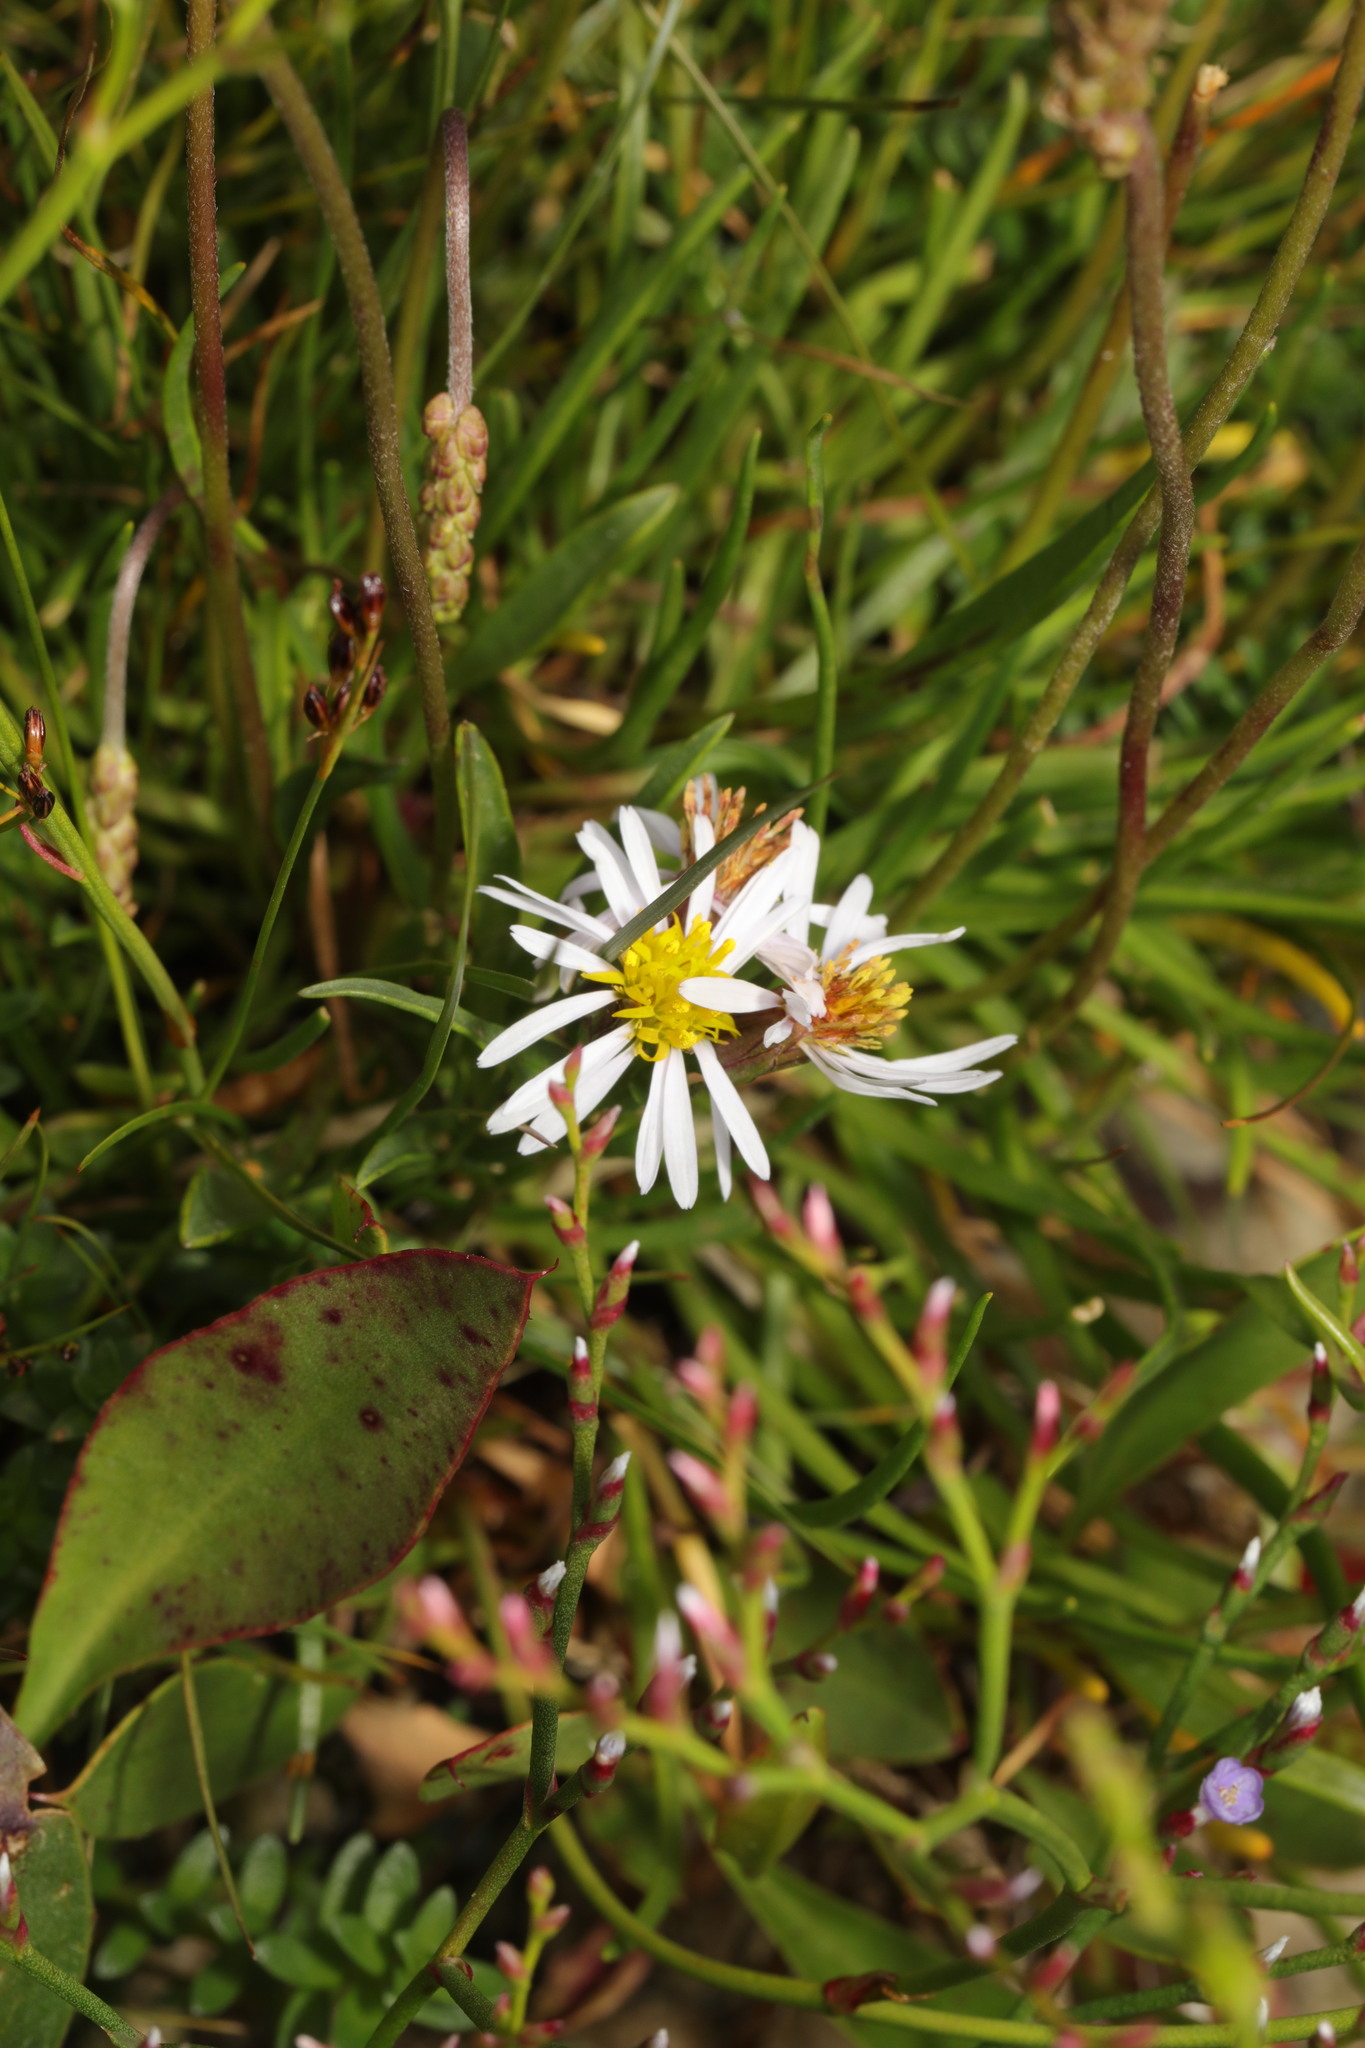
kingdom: Plantae
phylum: Tracheophyta
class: Magnoliopsida
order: Asterales
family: Asteraceae
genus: Tripolium
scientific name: Tripolium pannonicum
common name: Sea aster
